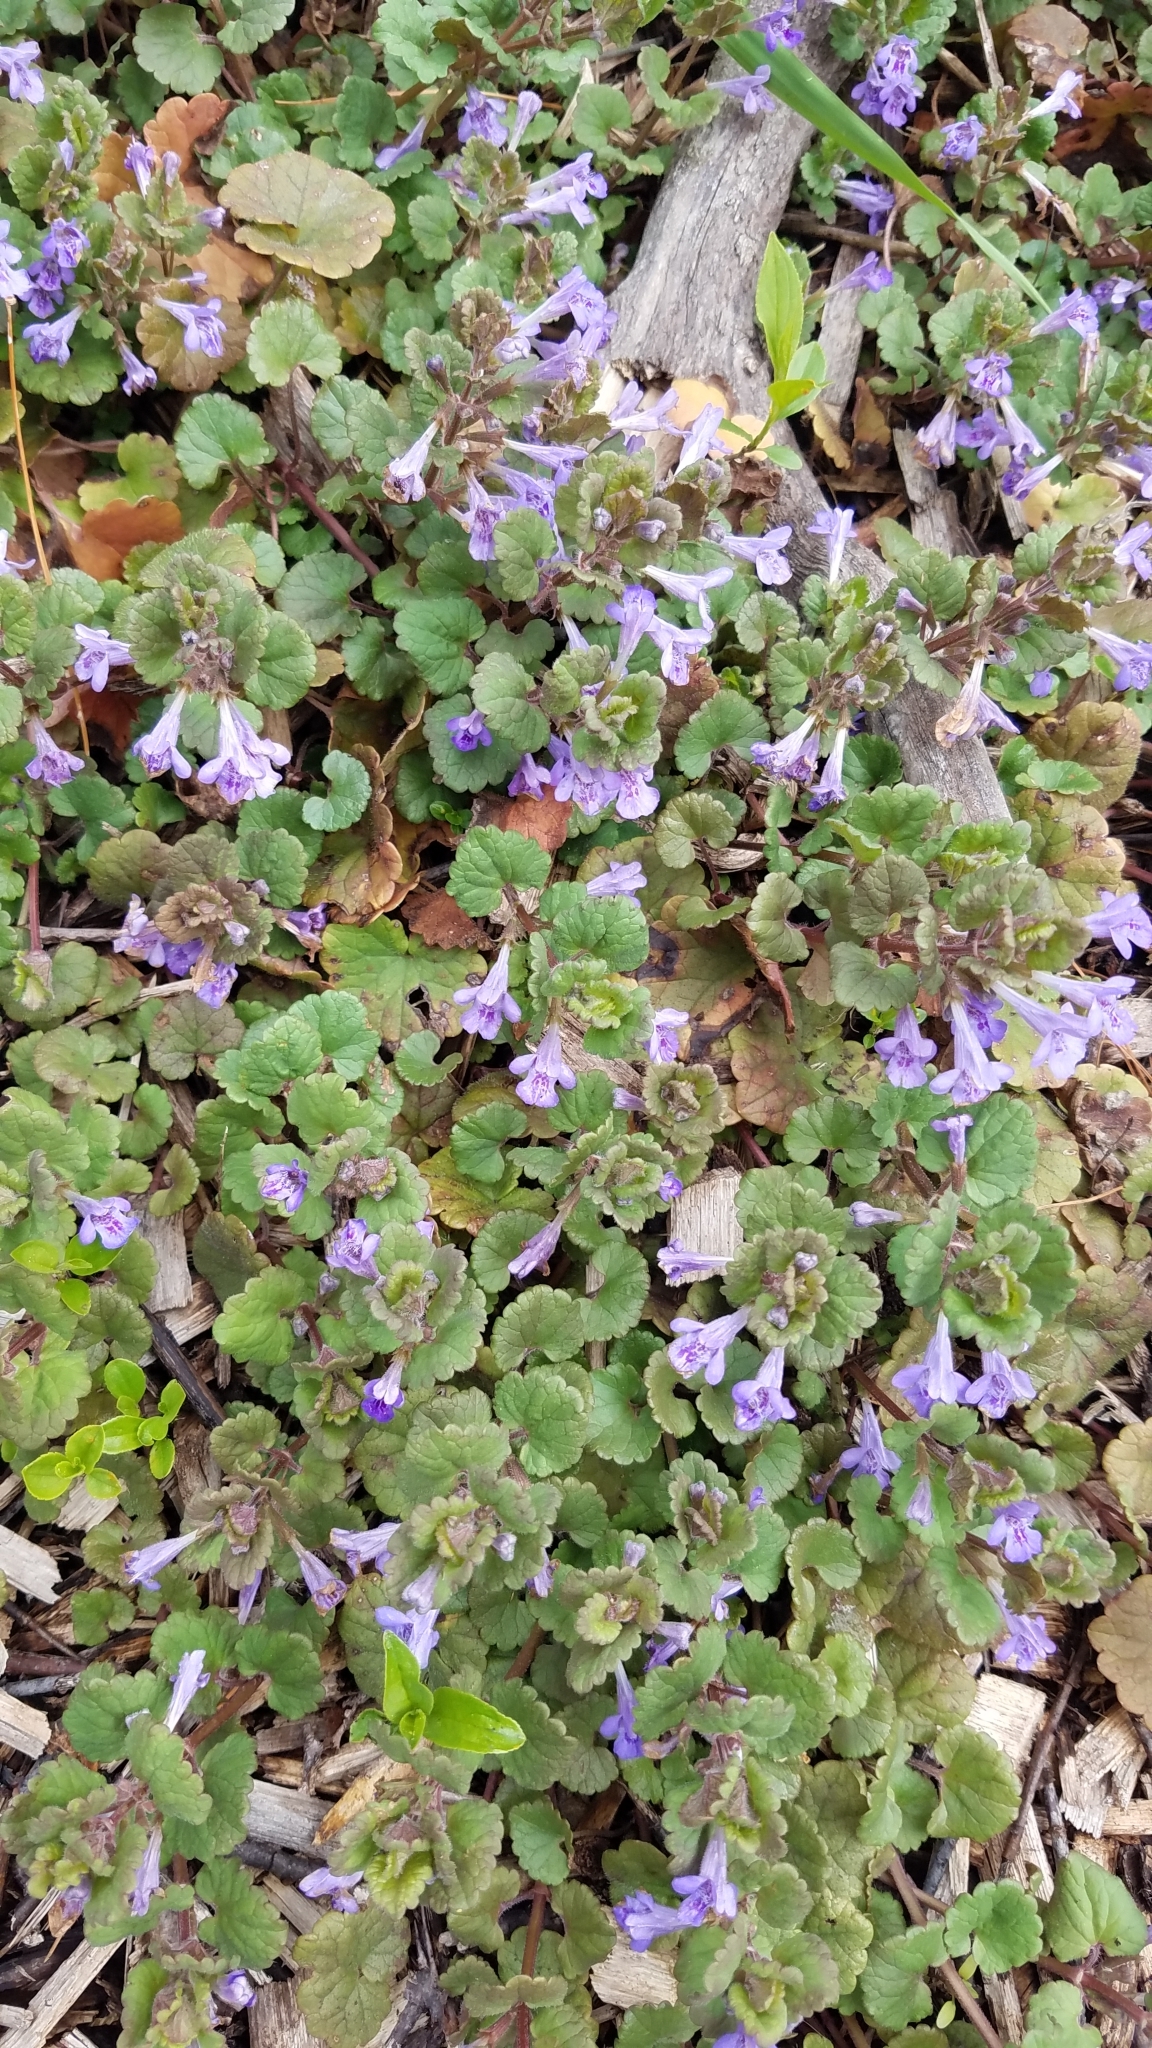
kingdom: Plantae
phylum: Tracheophyta
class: Magnoliopsida
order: Lamiales
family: Lamiaceae
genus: Glechoma
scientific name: Glechoma hederacea
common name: Ground ivy
